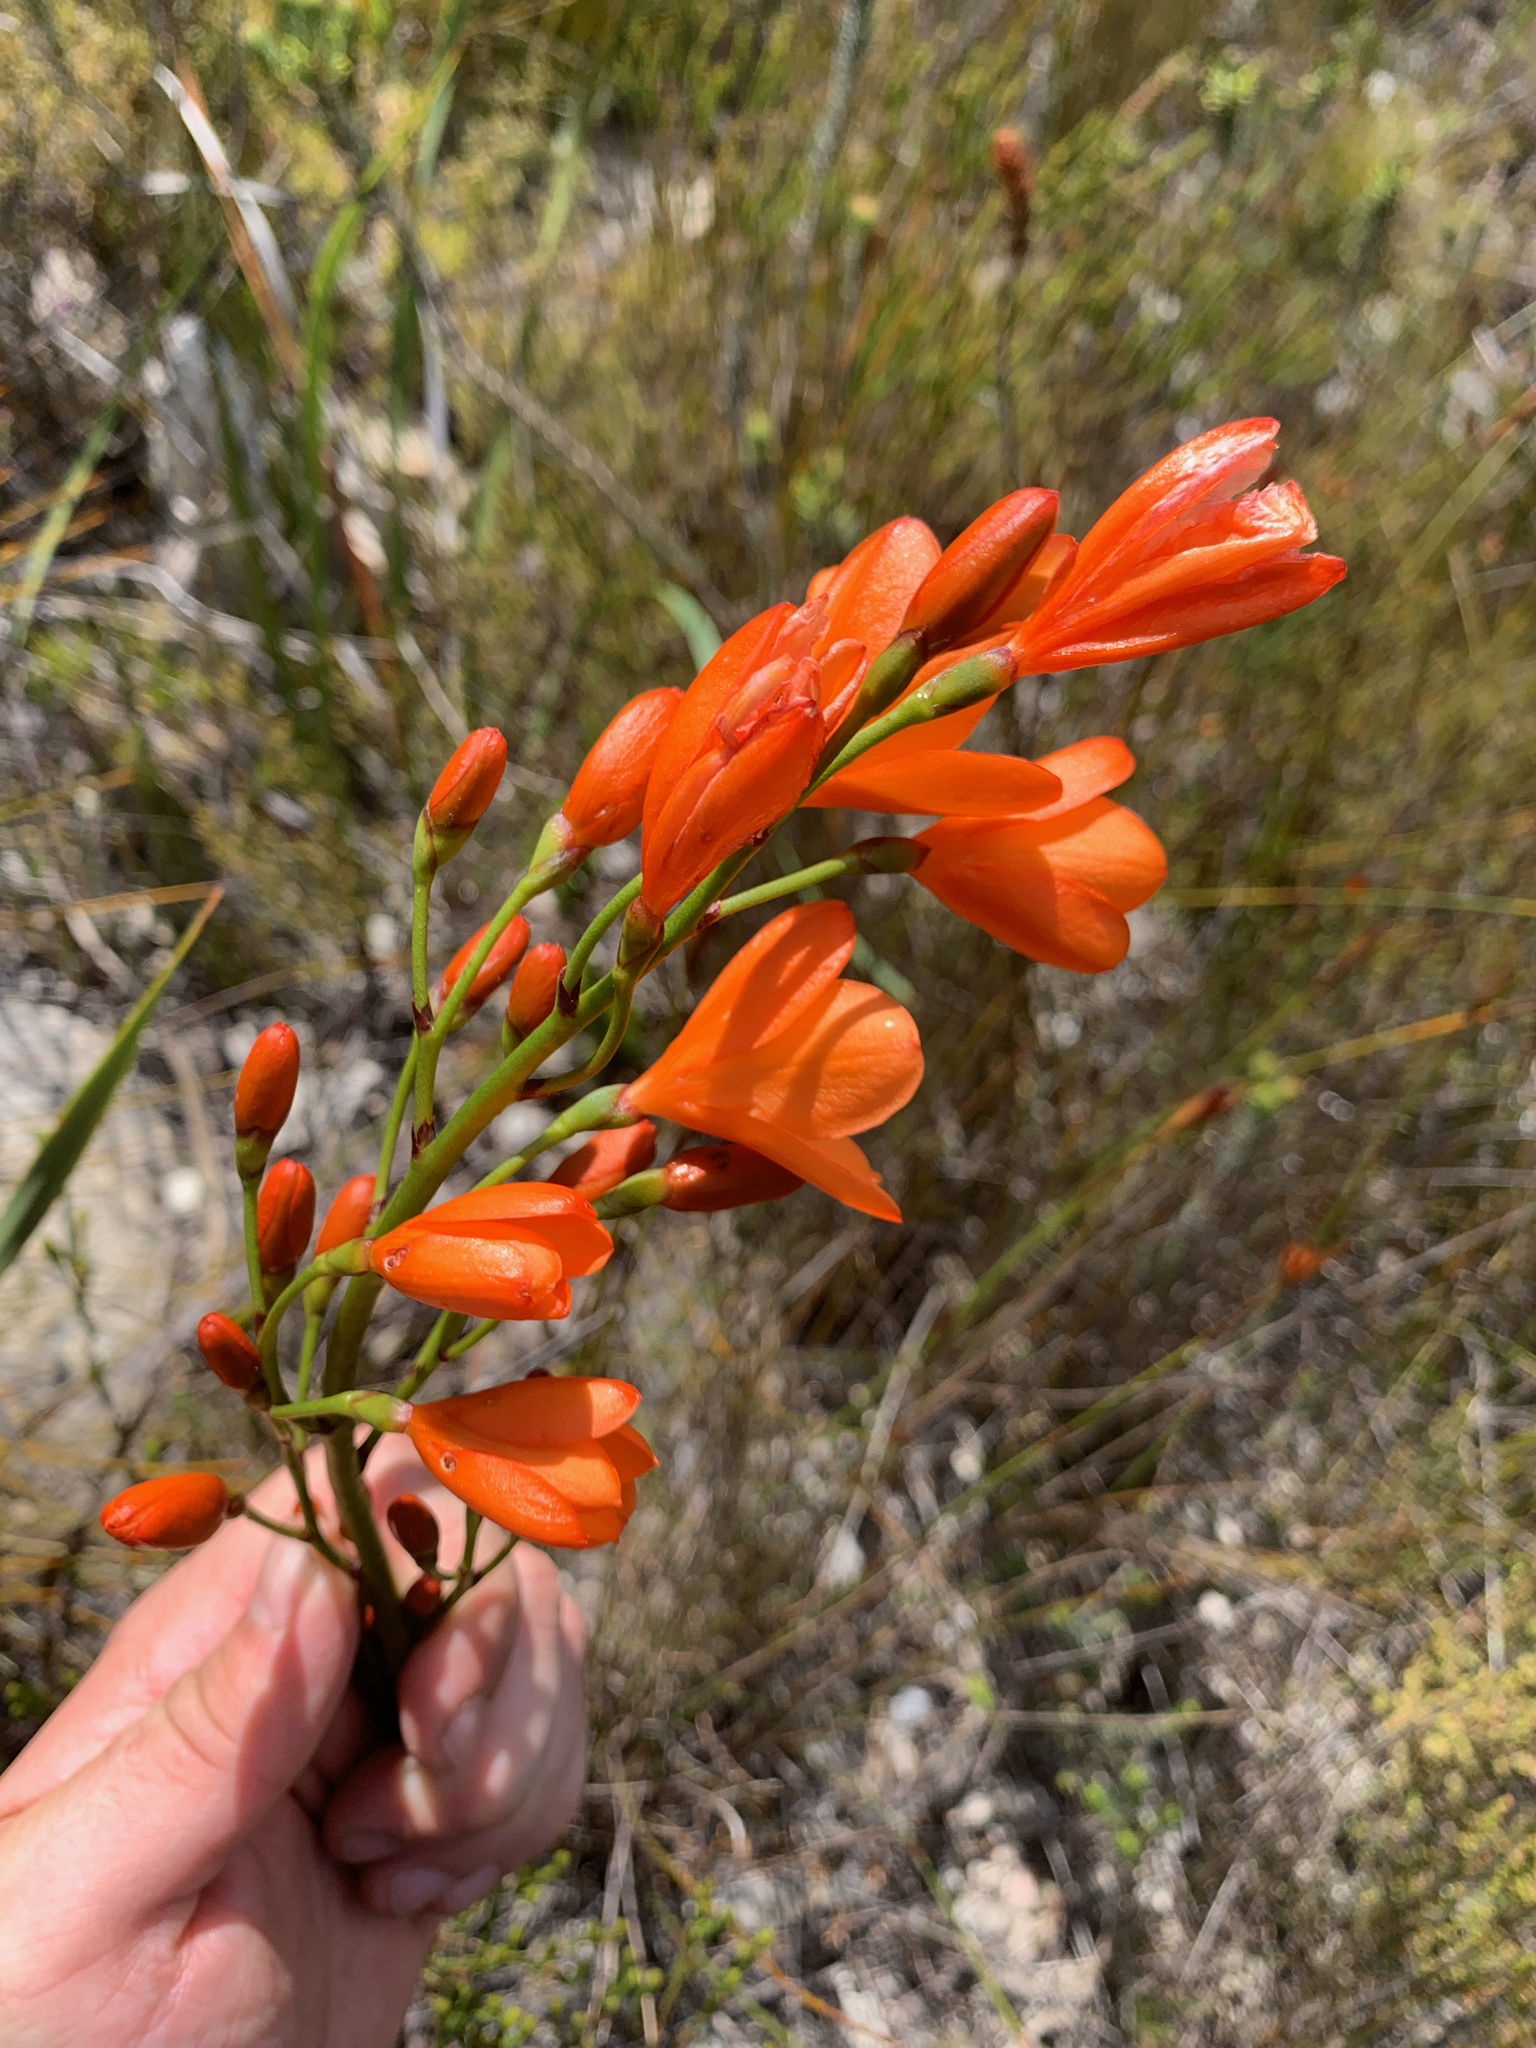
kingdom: Plantae
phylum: Tracheophyta
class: Liliopsida
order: Asparagales
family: Iridaceae
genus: Pillansia
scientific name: Pillansia templemannii
